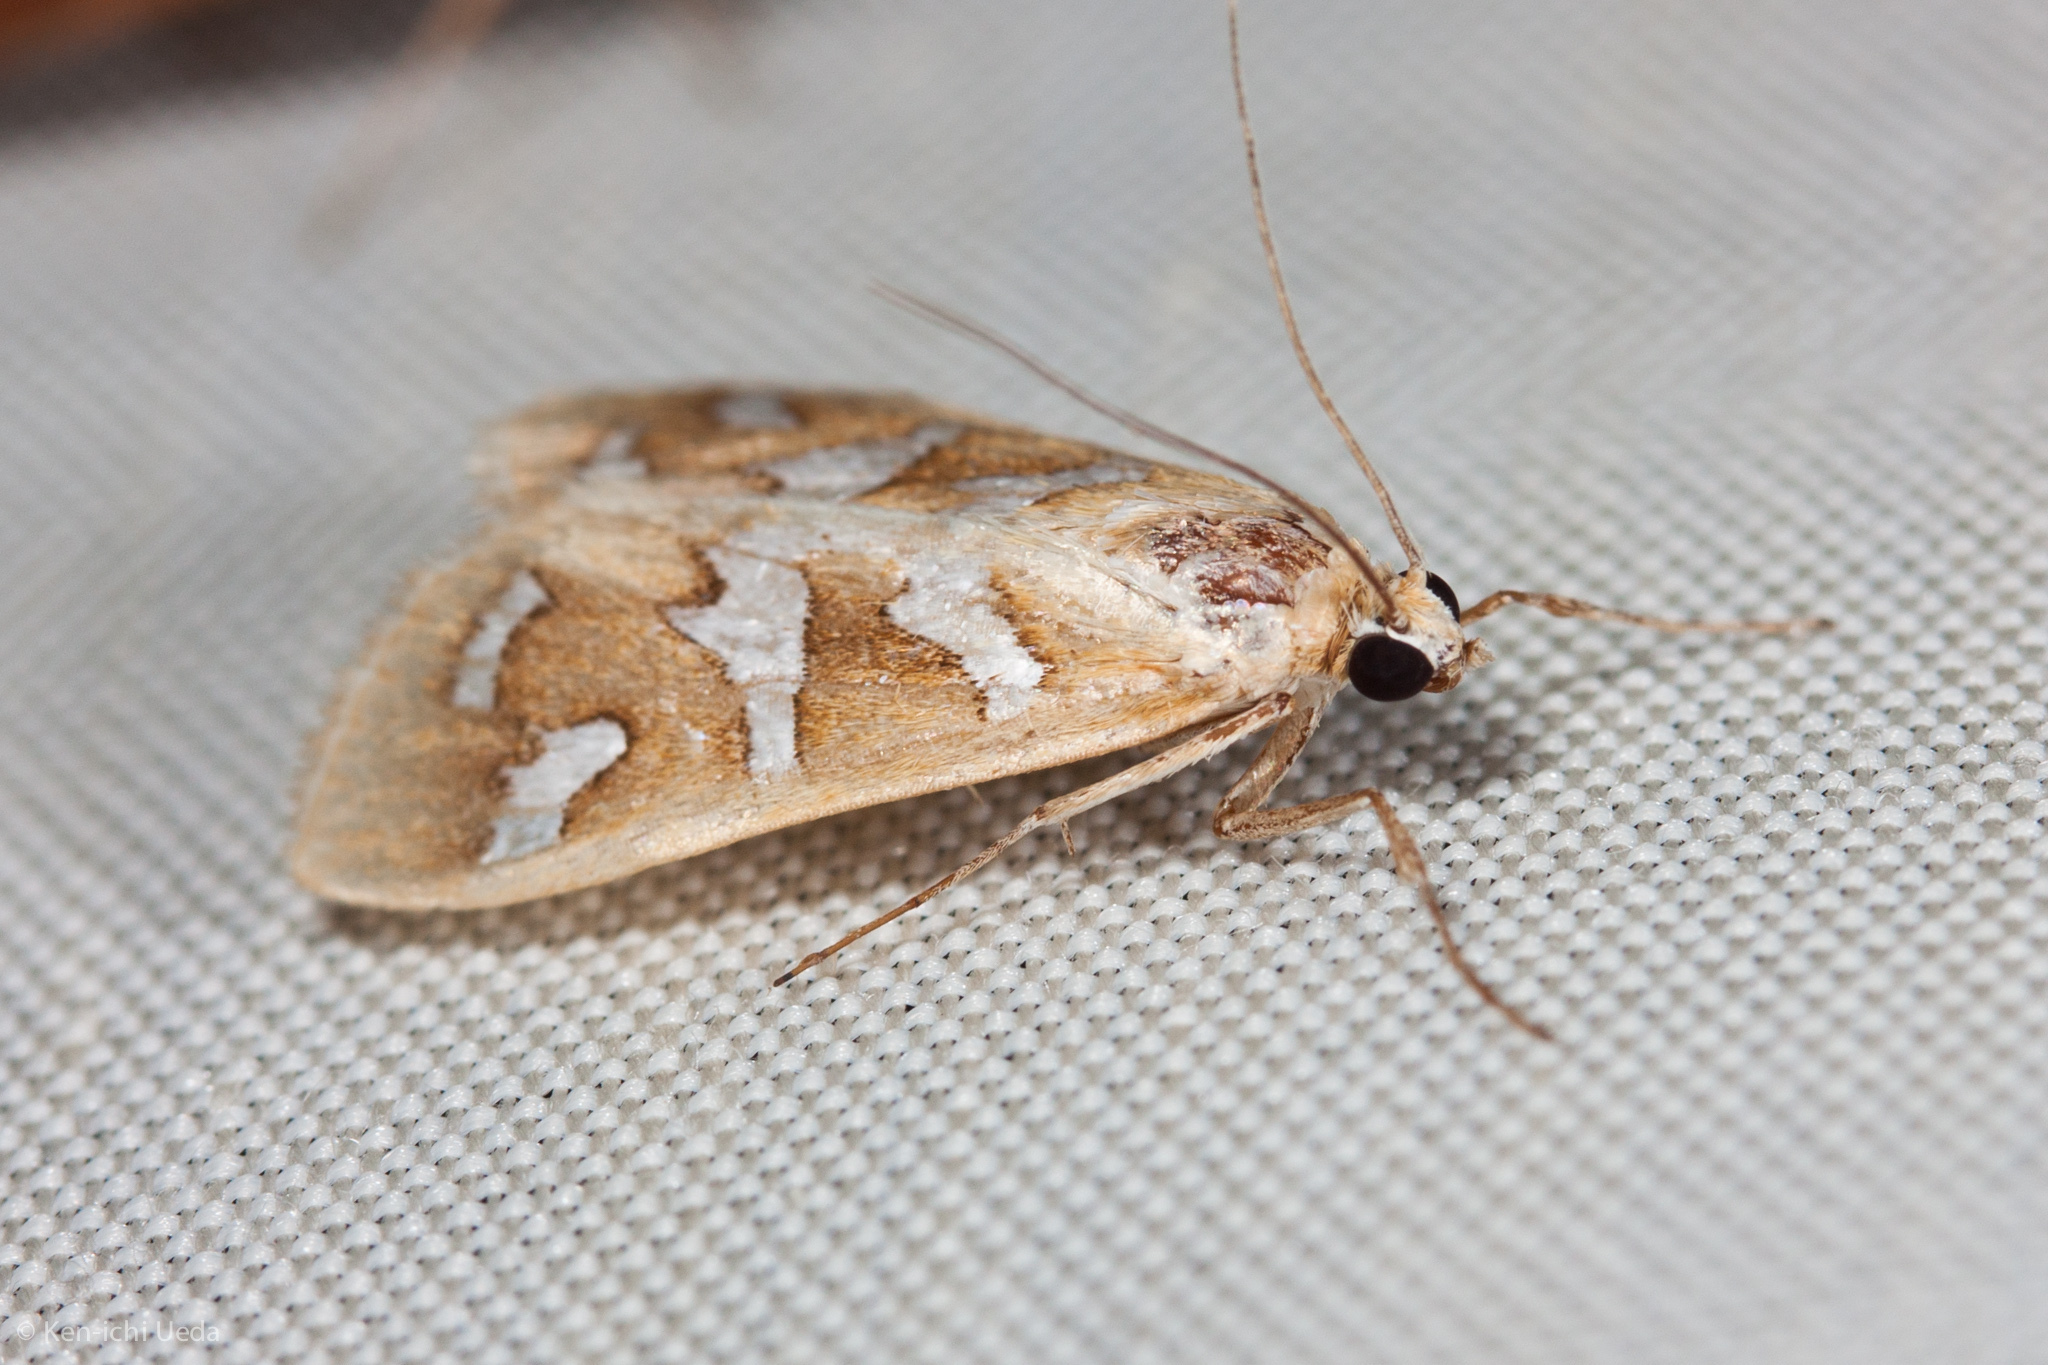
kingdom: Animalia
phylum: Arthropoda
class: Insecta
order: Lepidoptera
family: Crambidae
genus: Diastictis
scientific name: Diastictis fracturalis
